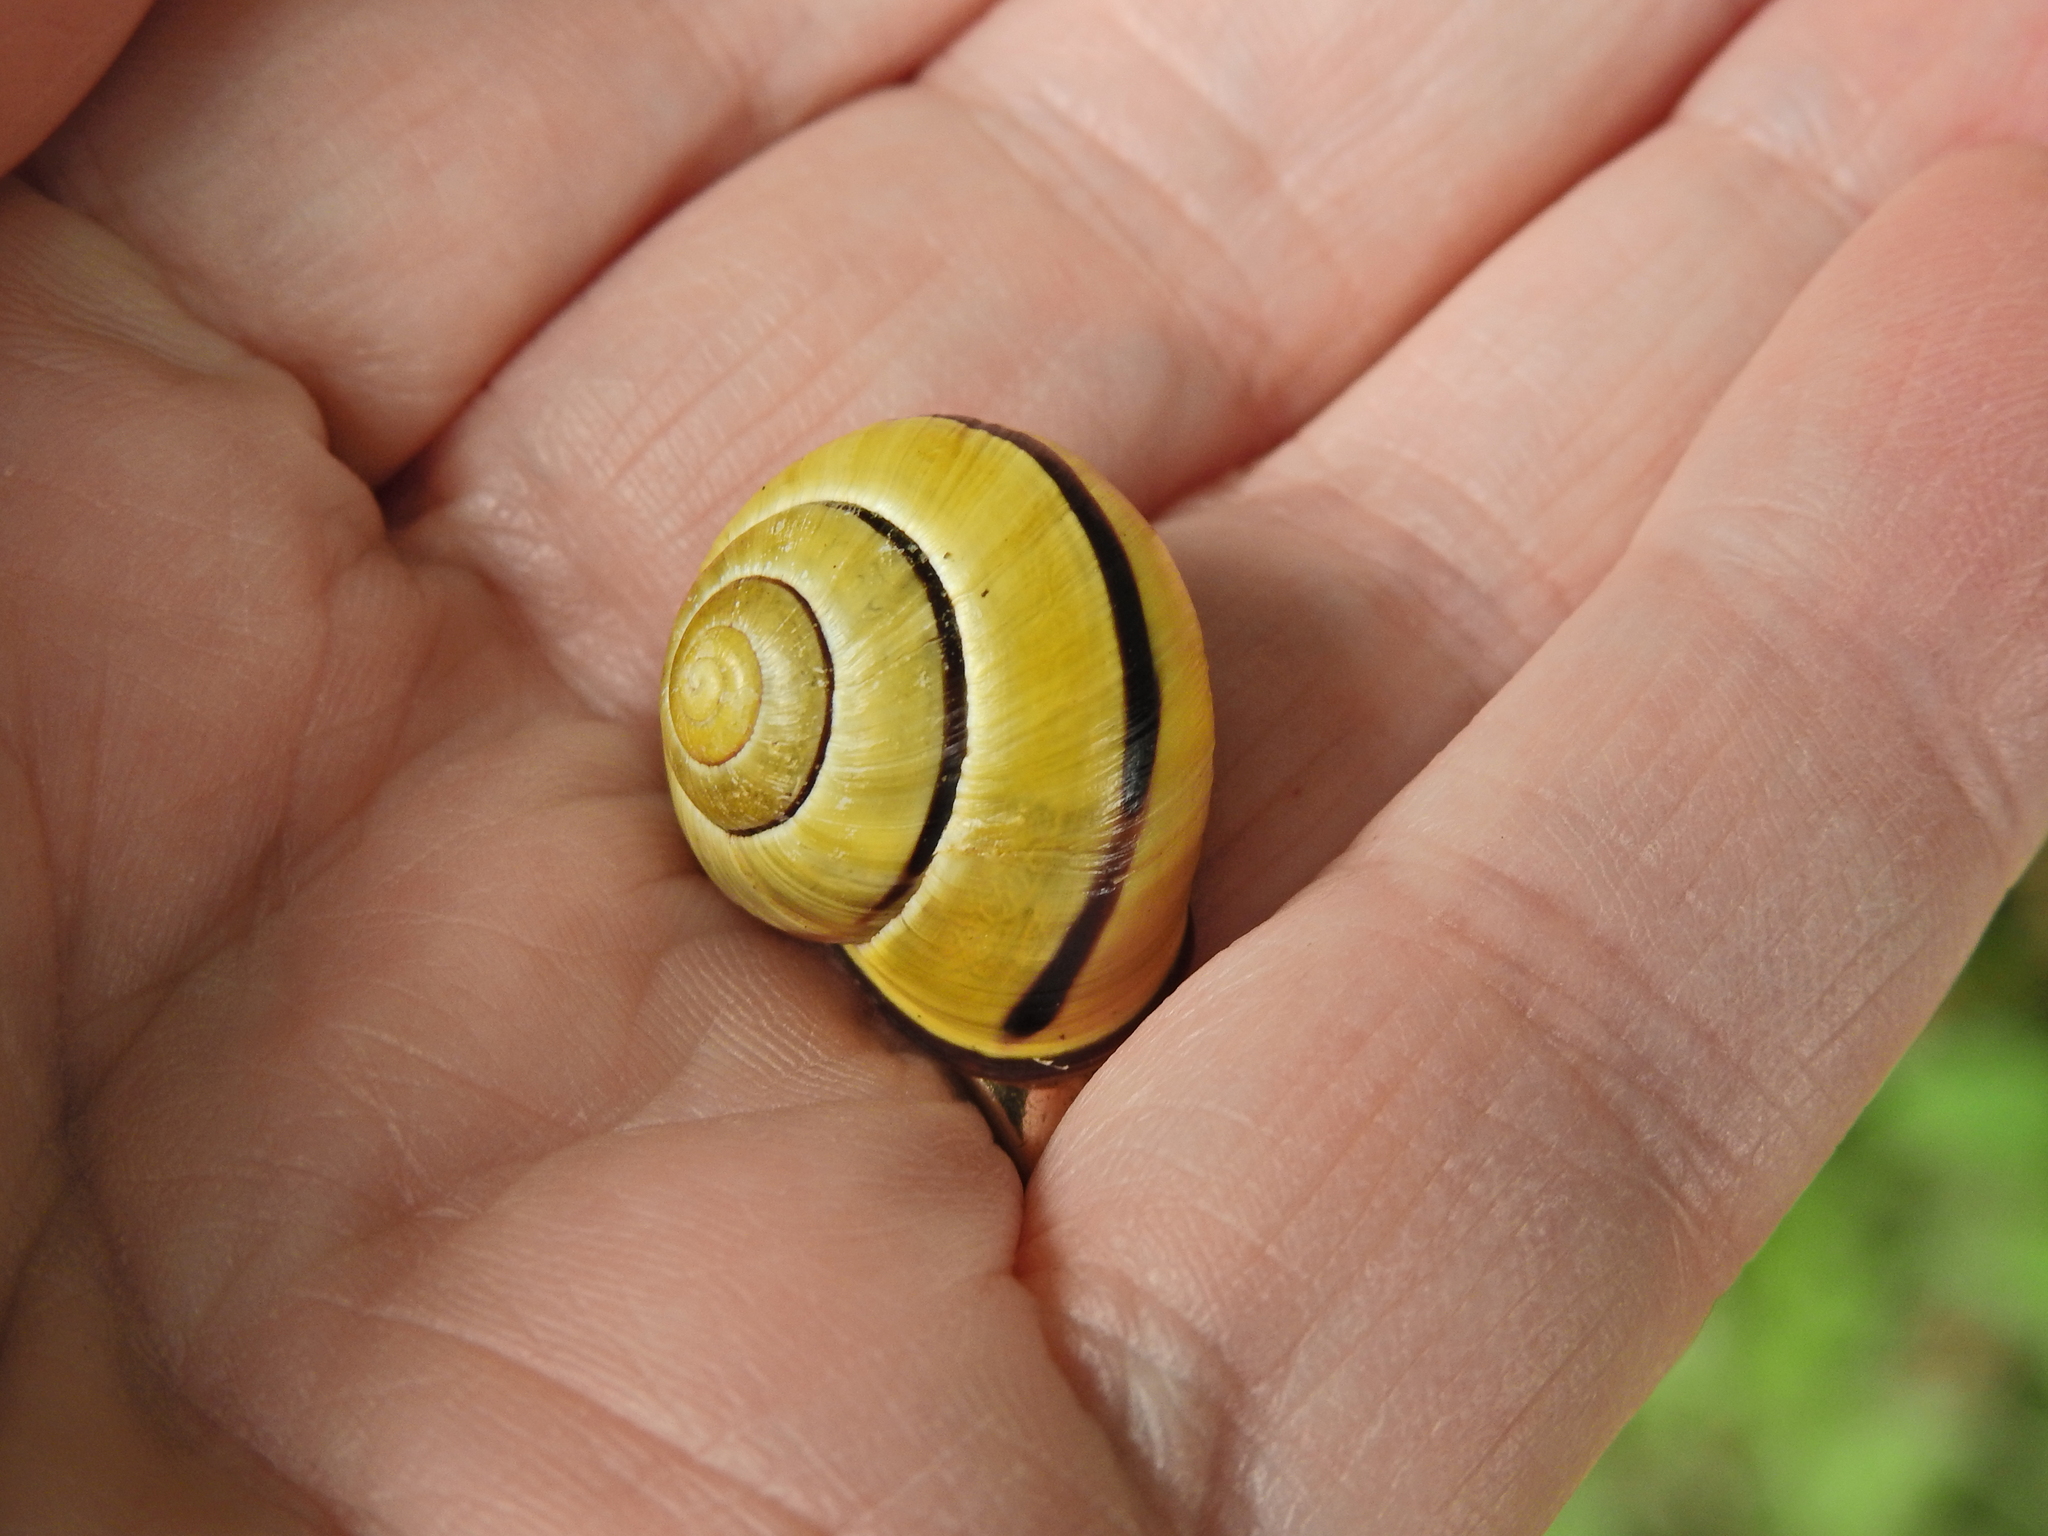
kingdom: Animalia
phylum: Mollusca
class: Gastropoda
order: Stylommatophora
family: Helicidae
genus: Cepaea
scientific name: Cepaea nemoralis
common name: Grovesnail
